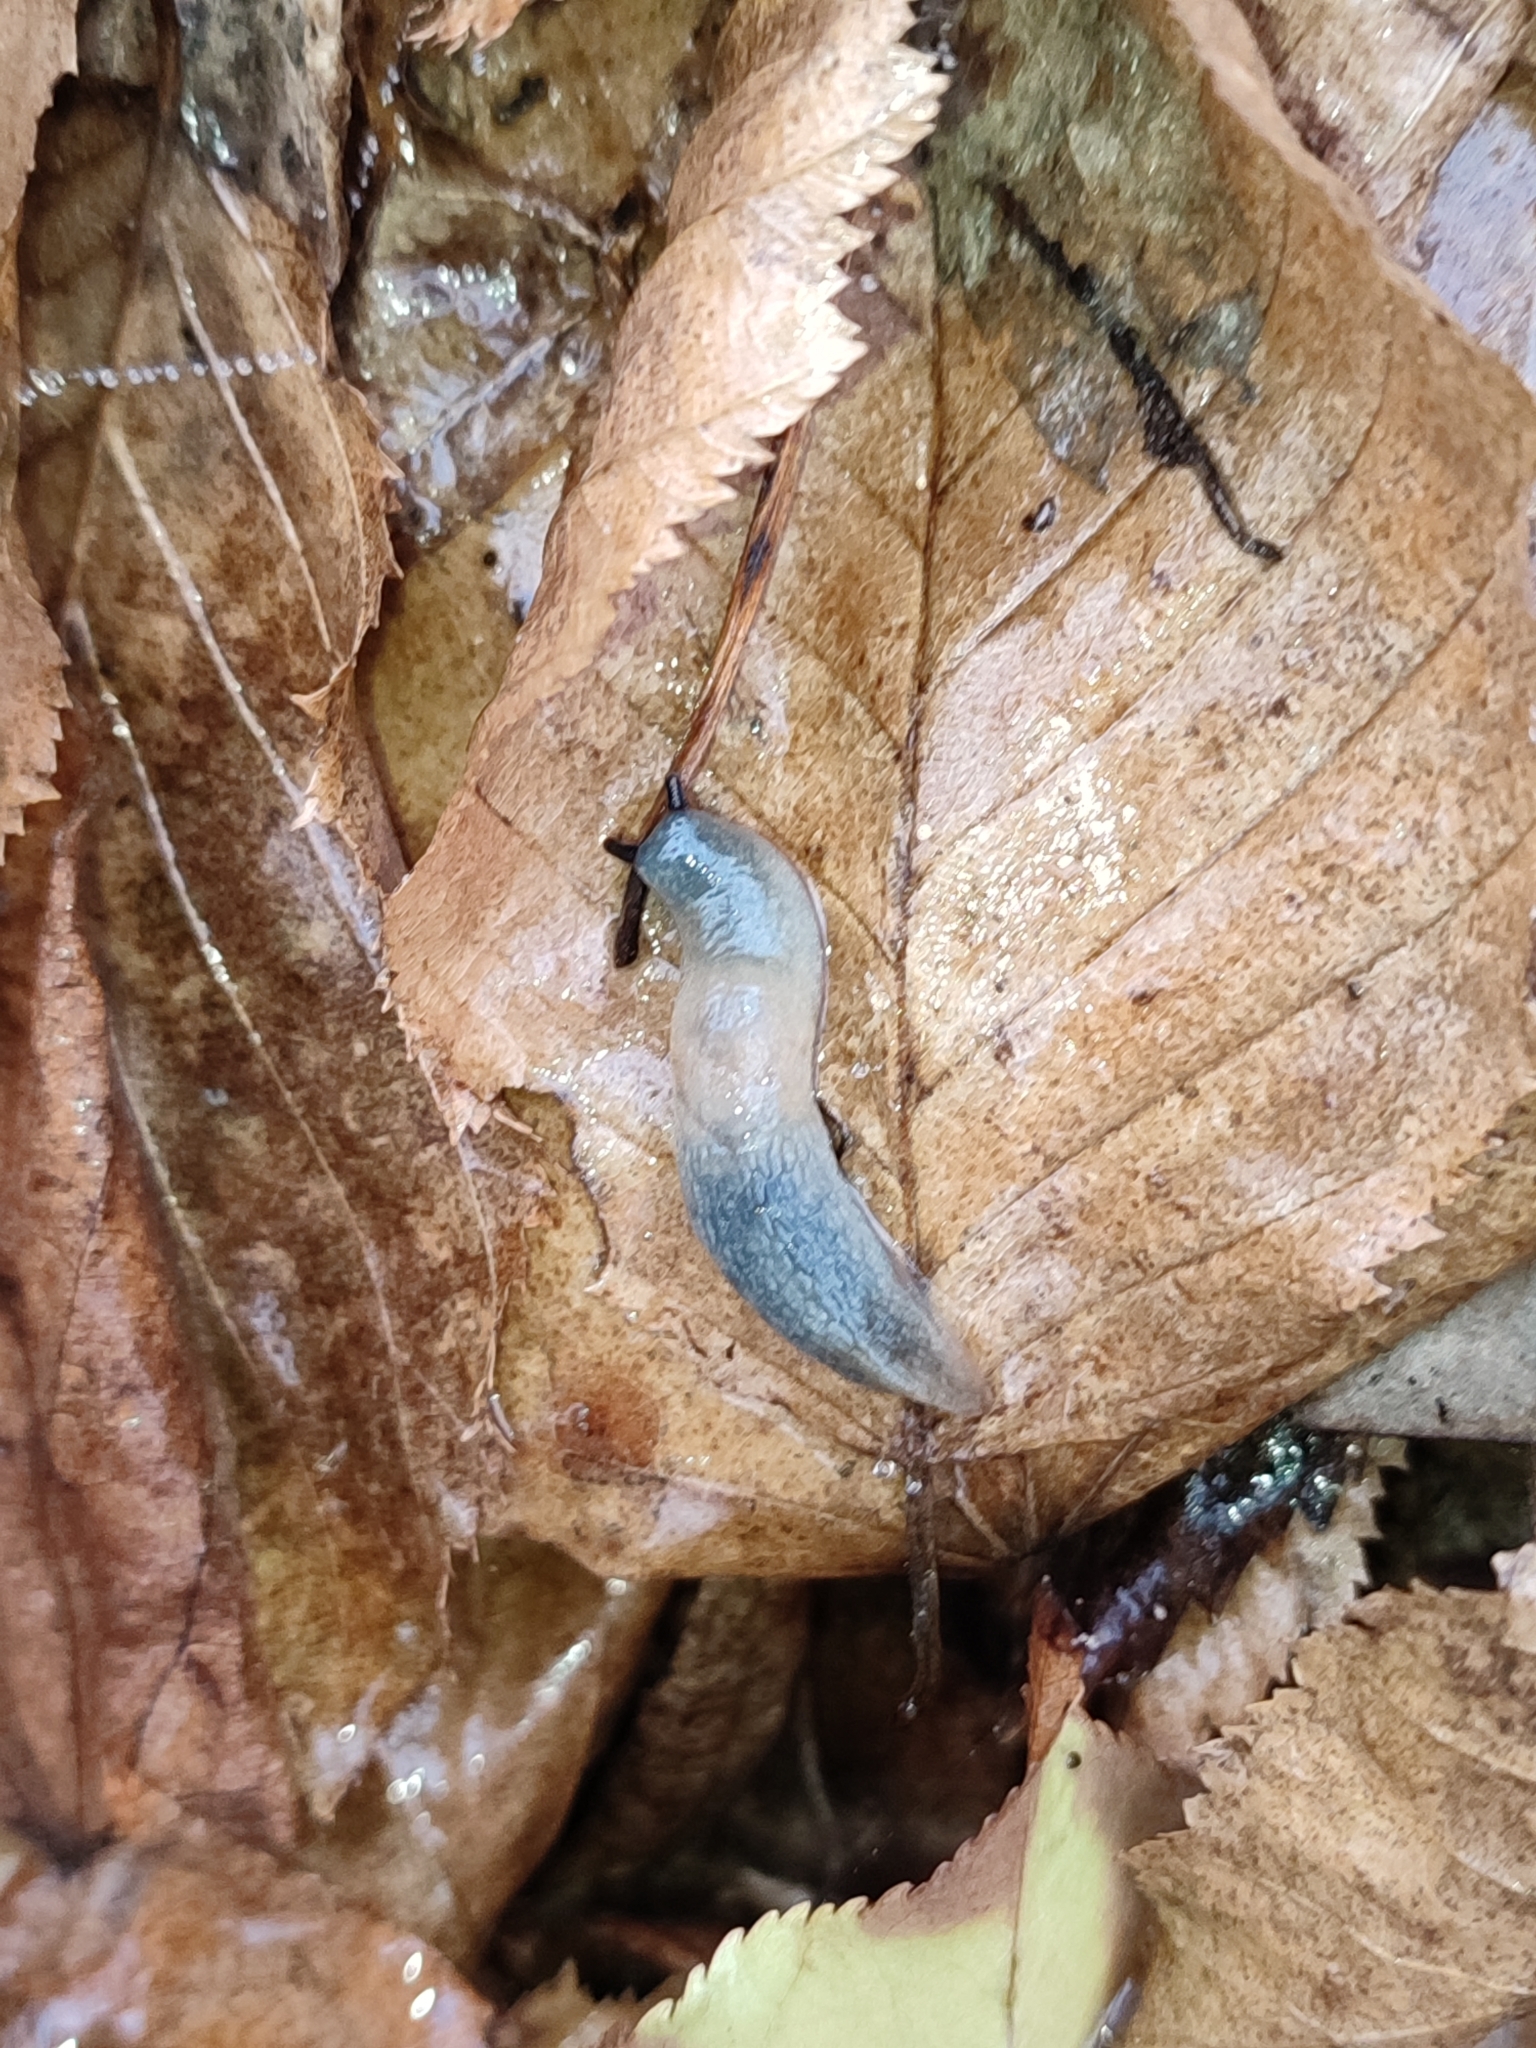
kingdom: Animalia
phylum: Mollusca
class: Gastropoda
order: Stylommatophora
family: Agriolimacidae
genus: Krynickillus
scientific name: Krynickillus melanocephalus
